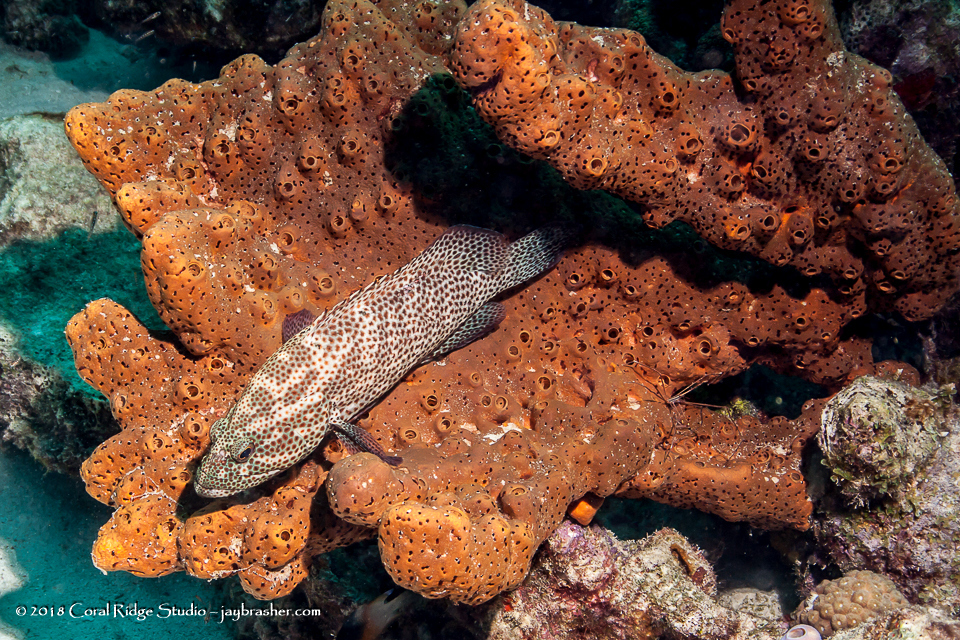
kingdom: Animalia
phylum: Chordata
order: Perciformes
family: Serranidae
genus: Cephalopholis
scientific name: Cephalopholis cruentata
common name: Graysby
